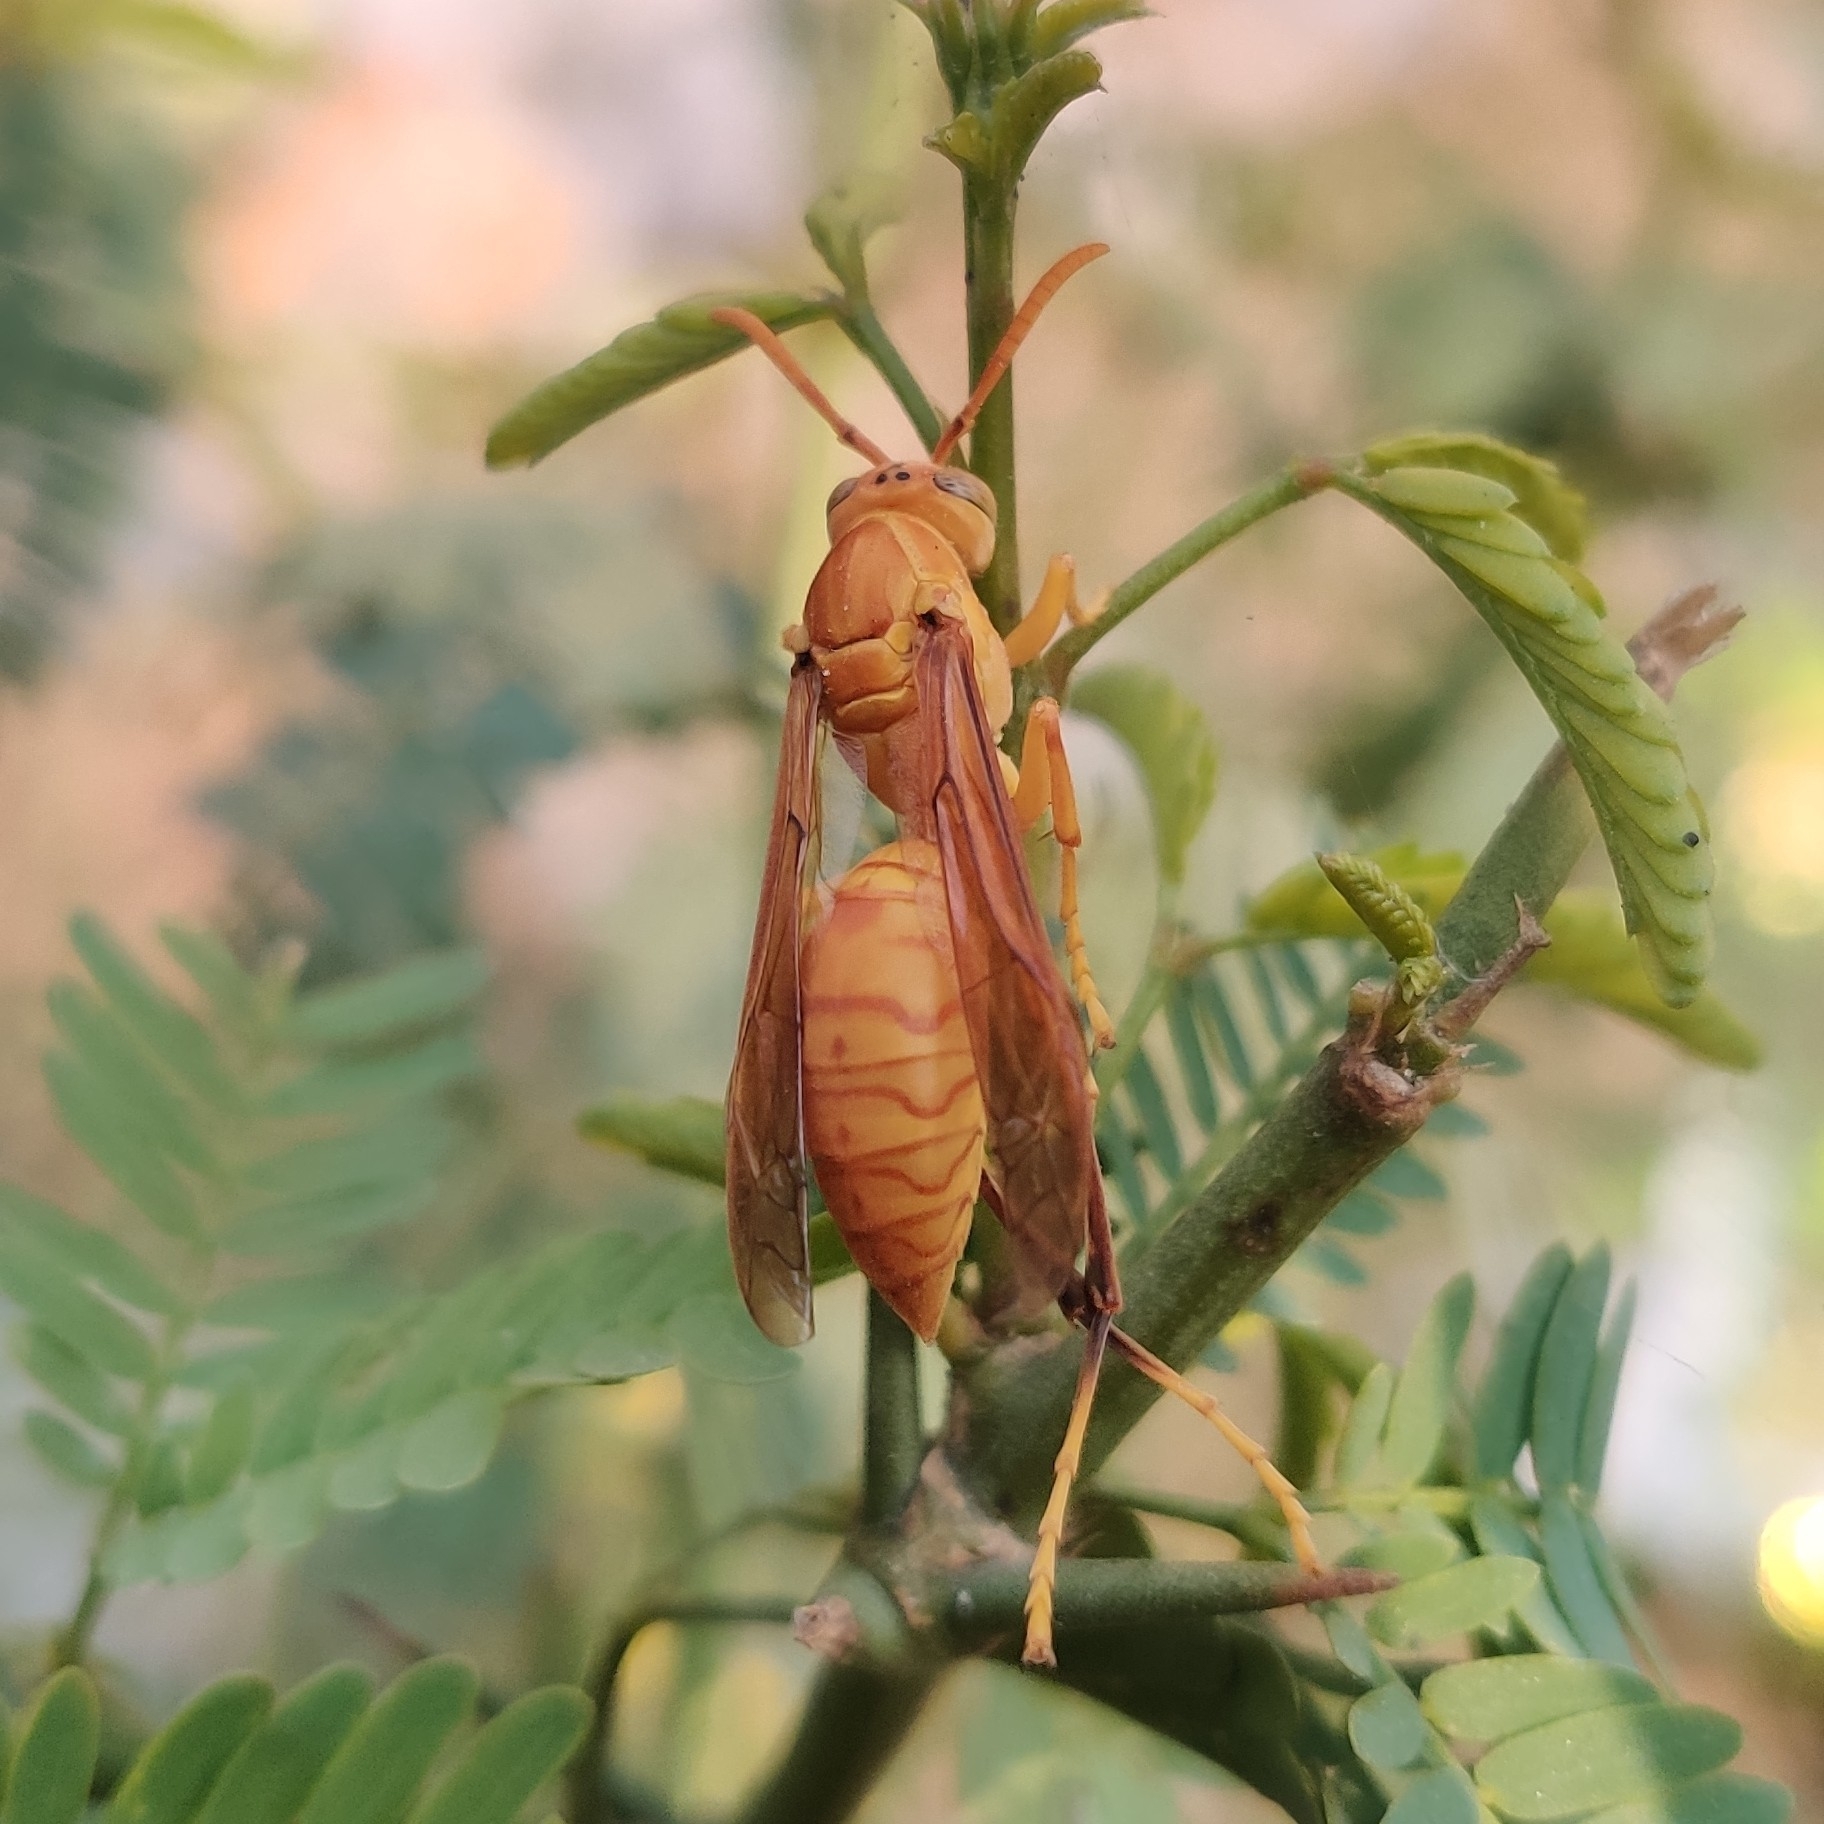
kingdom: Animalia
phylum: Arthropoda
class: Insecta
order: Hymenoptera
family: Eumenidae
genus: Polistes
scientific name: Polistes wattii
